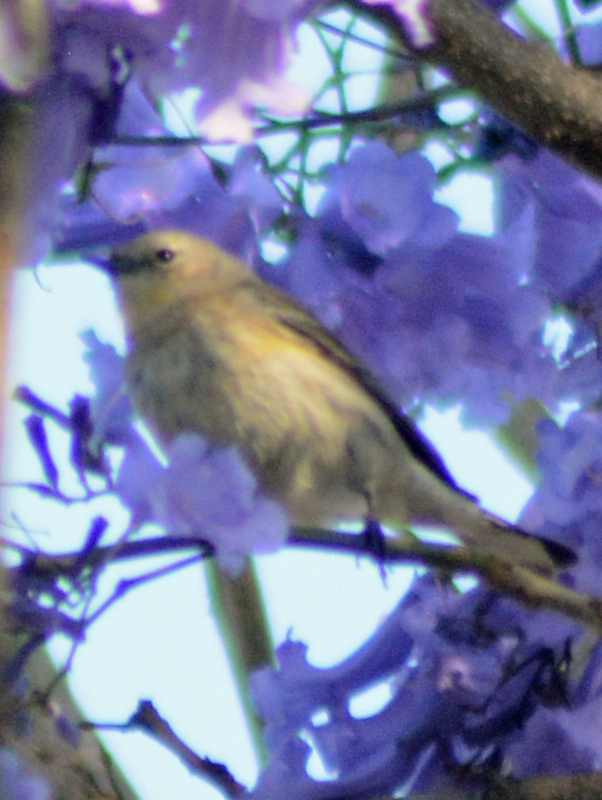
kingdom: Animalia
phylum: Chordata
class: Aves
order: Passeriformes
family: Parulidae
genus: Setophaga
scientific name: Setophaga coronata
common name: Myrtle warbler
